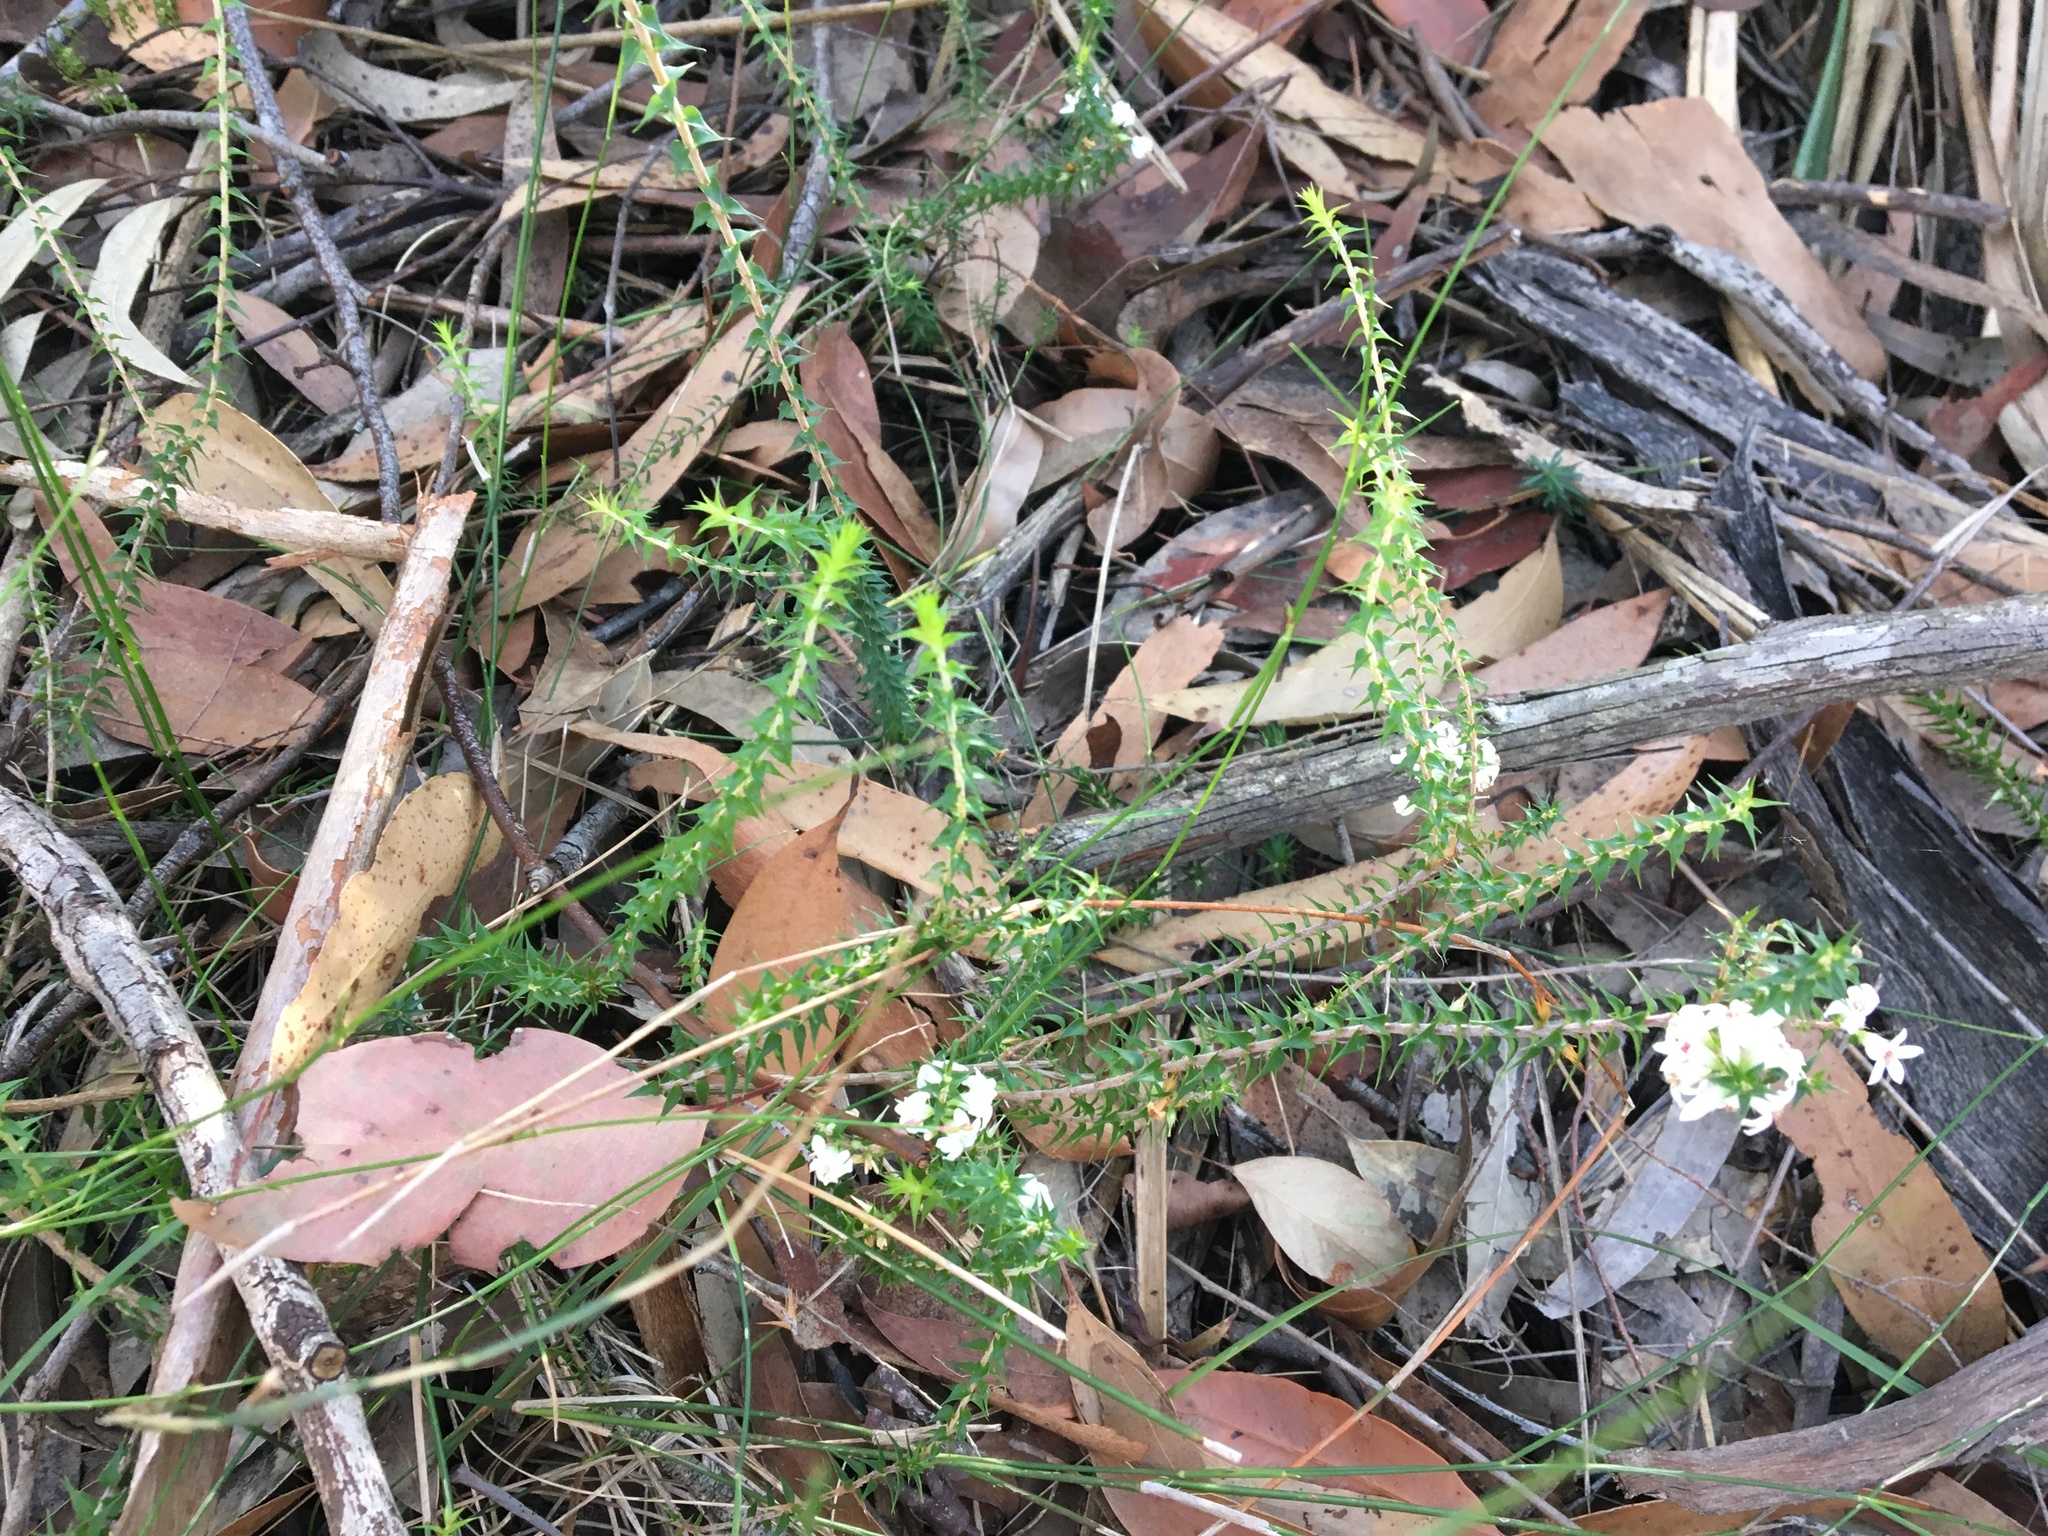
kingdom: Plantae
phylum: Tracheophyta
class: Magnoliopsida
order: Ericales
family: Ericaceae
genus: Epacris
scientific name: Epacris pulchella
